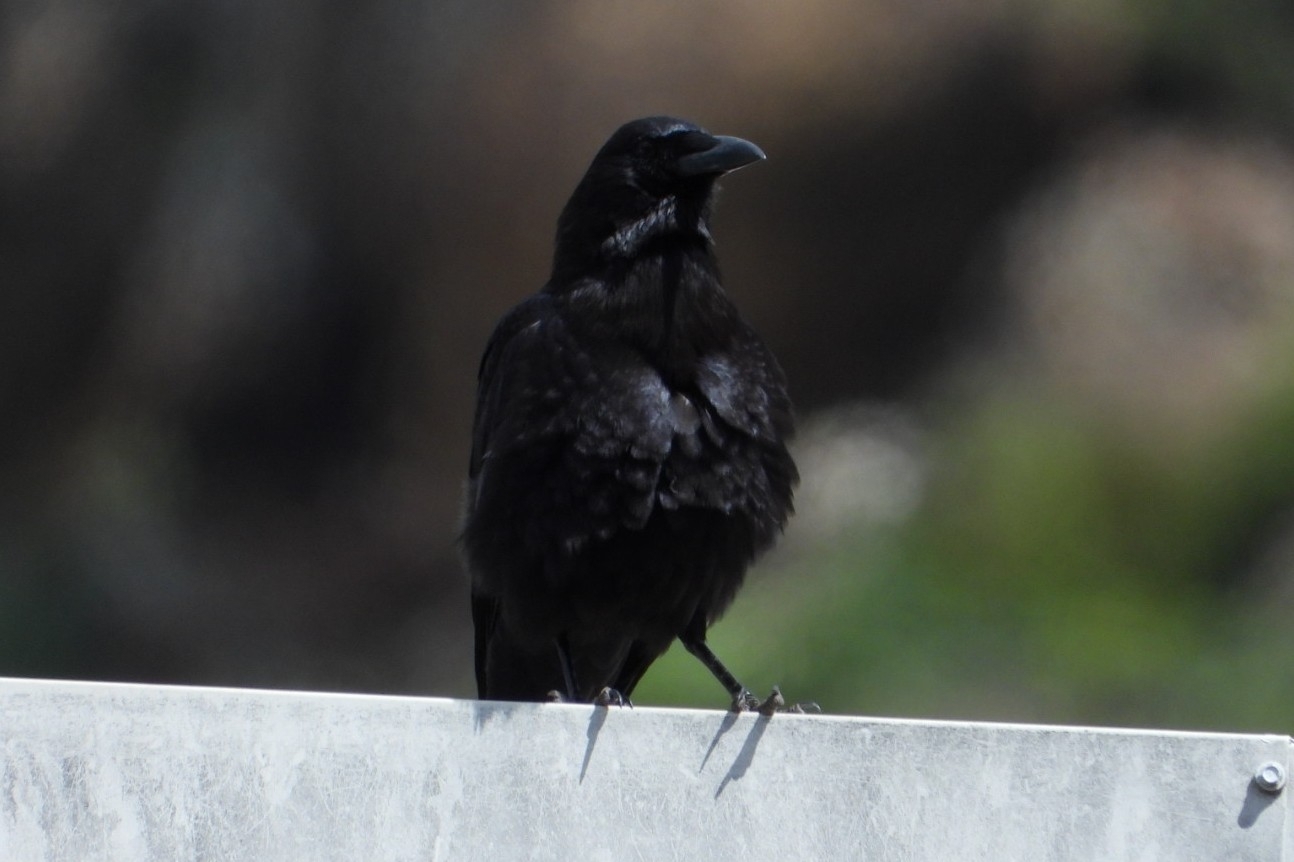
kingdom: Animalia
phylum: Chordata
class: Aves
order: Passeriformes
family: Corvidae
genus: Corvus
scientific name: Corvus brachyrhynchos
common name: American crow
